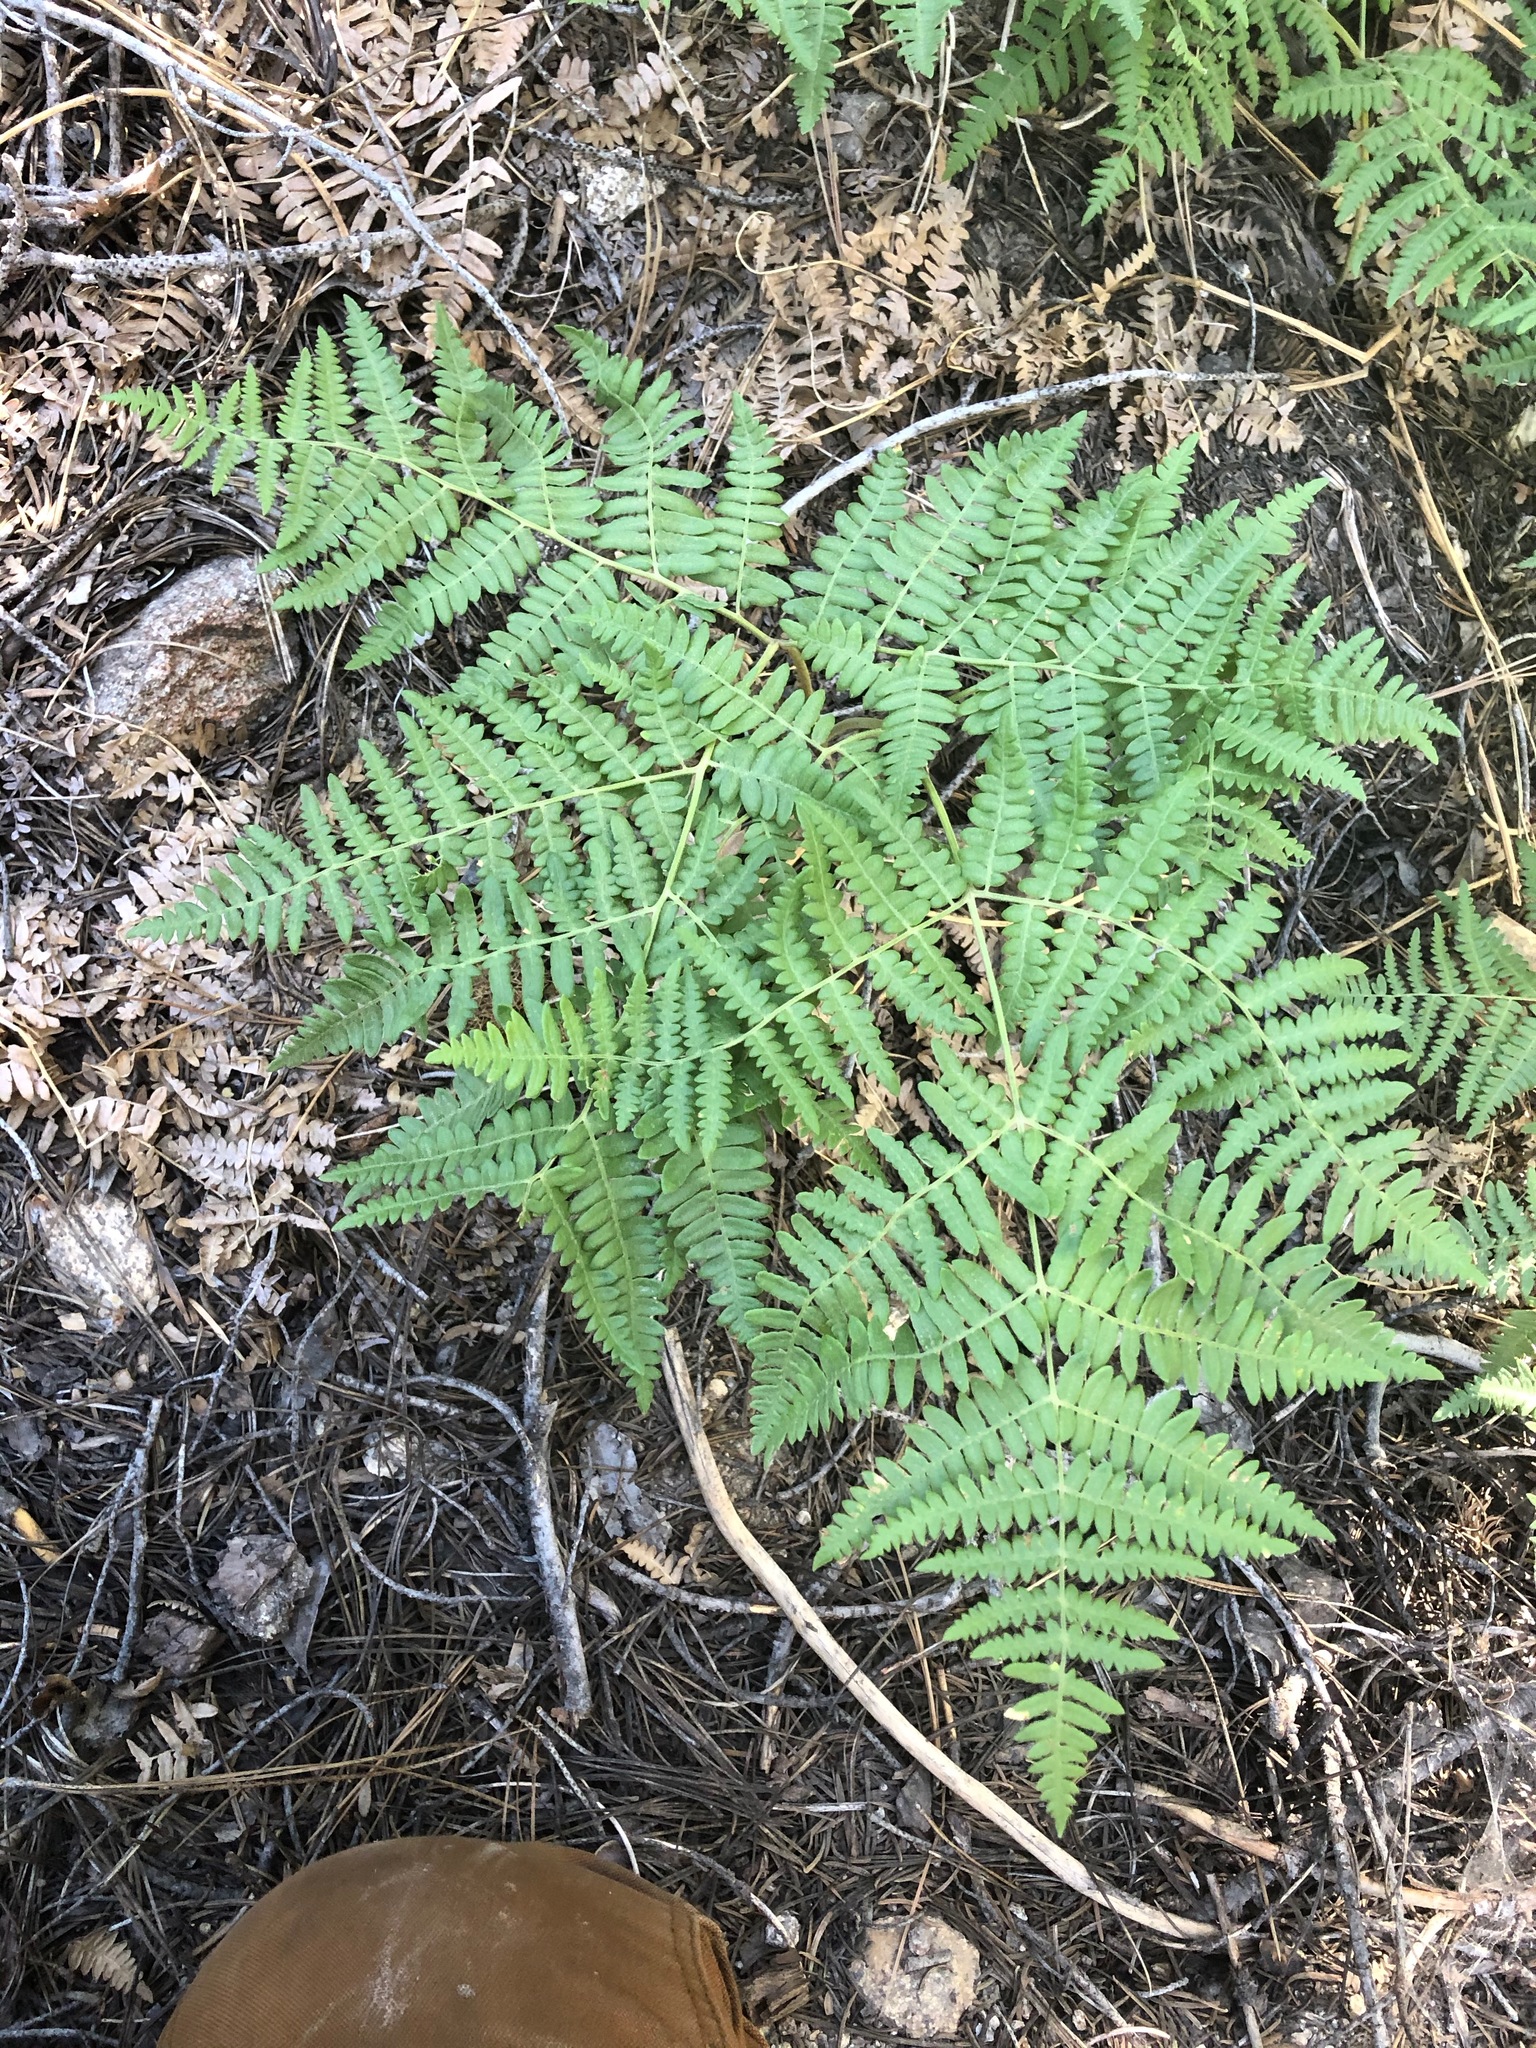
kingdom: Plantae
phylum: Tracheophyta
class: Polypodiopsida
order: Polypodiales
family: Dennstaedtiaceae
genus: Pteridium
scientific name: Pteridium aquilinum
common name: Bracken
